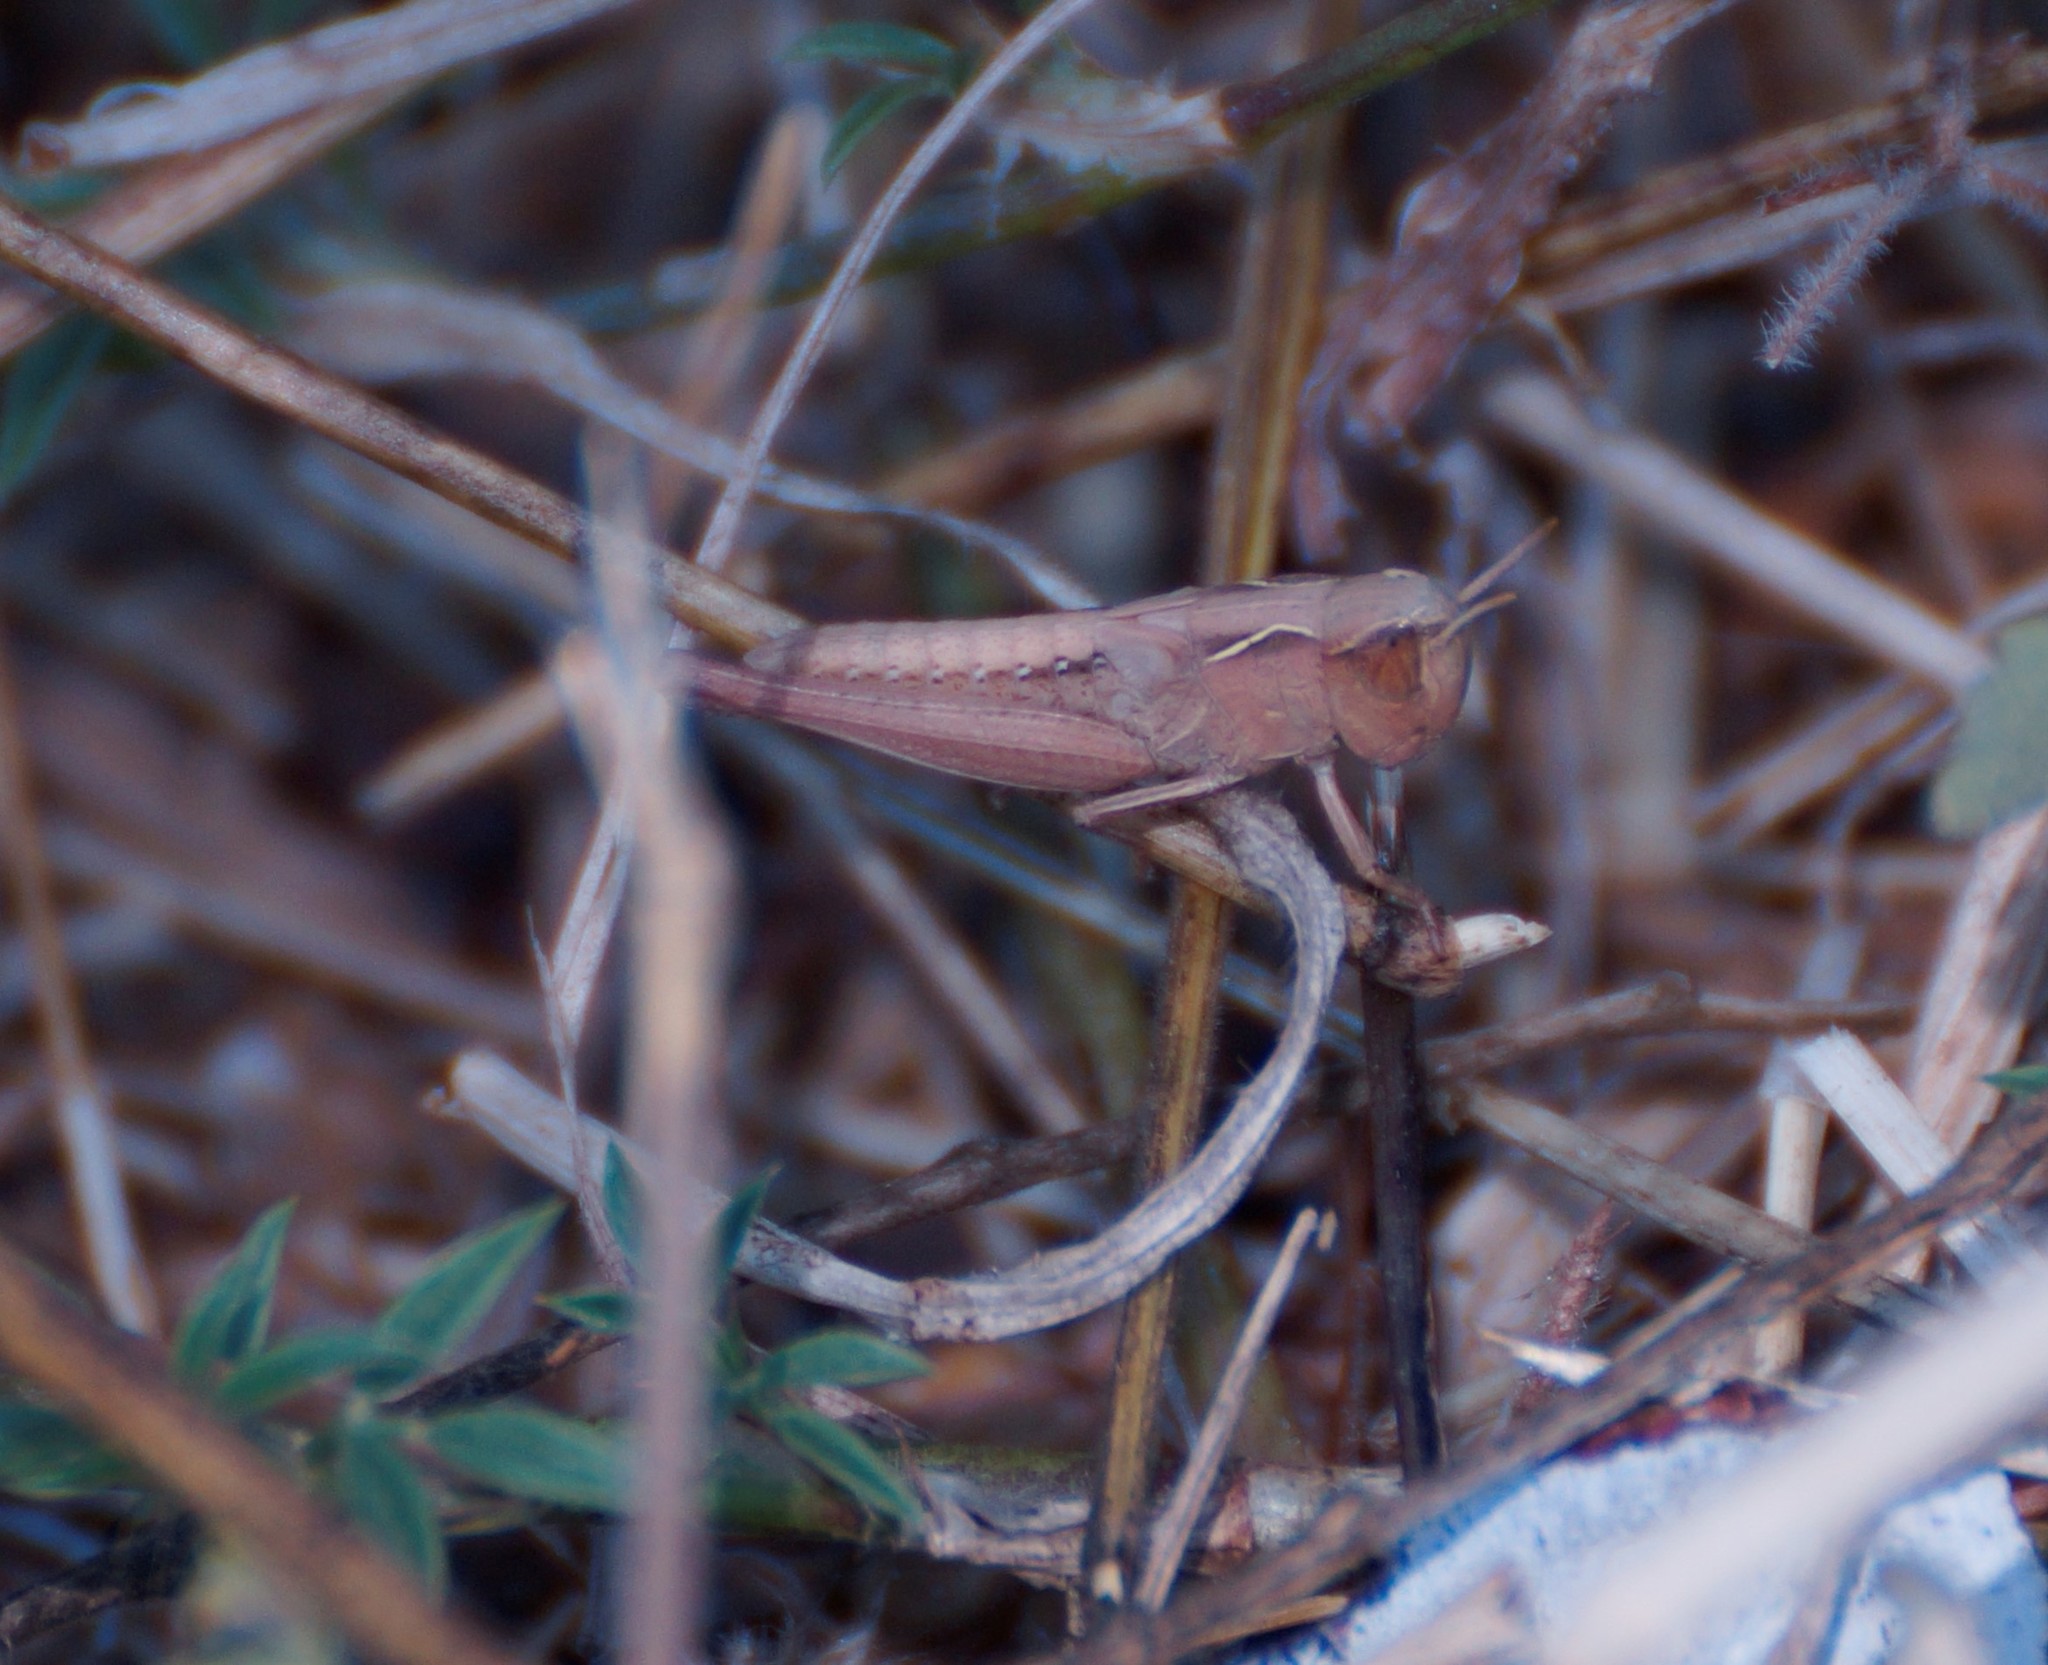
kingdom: Animalia
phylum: Arthropoda
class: Insecta
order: Orthoptera
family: Acrididae
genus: Caledia
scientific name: Caledia captiva
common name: Caledia
